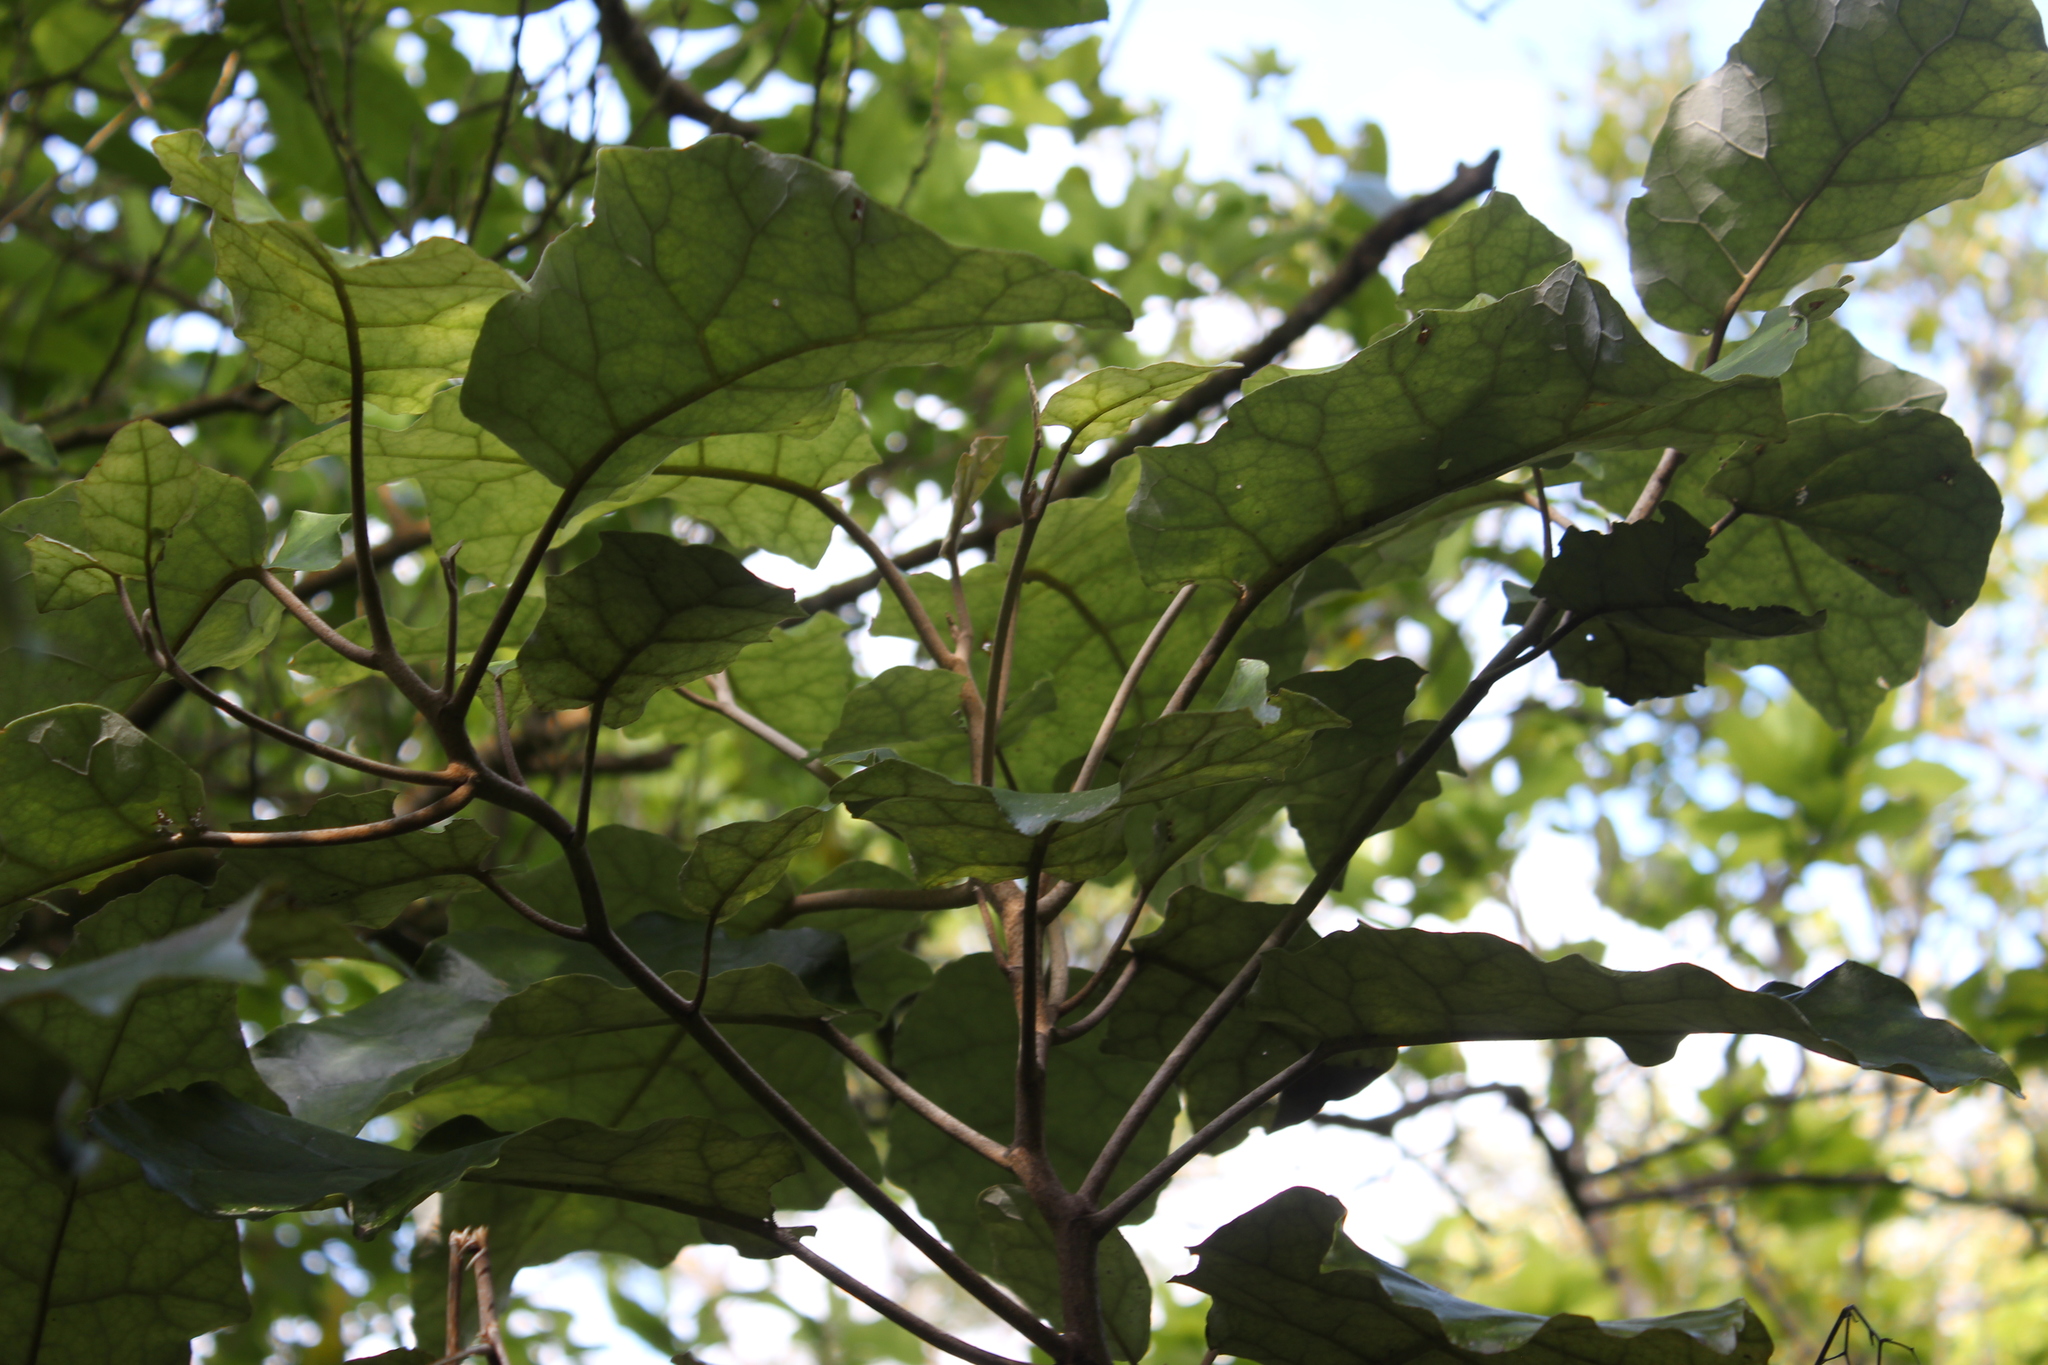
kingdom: Plantae
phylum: Tracheophyta
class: Magnoliopsida
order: Asterales
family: Asteraceae
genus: Brachyglottis
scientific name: Brachyglottis repanda
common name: Hedge ragwort
